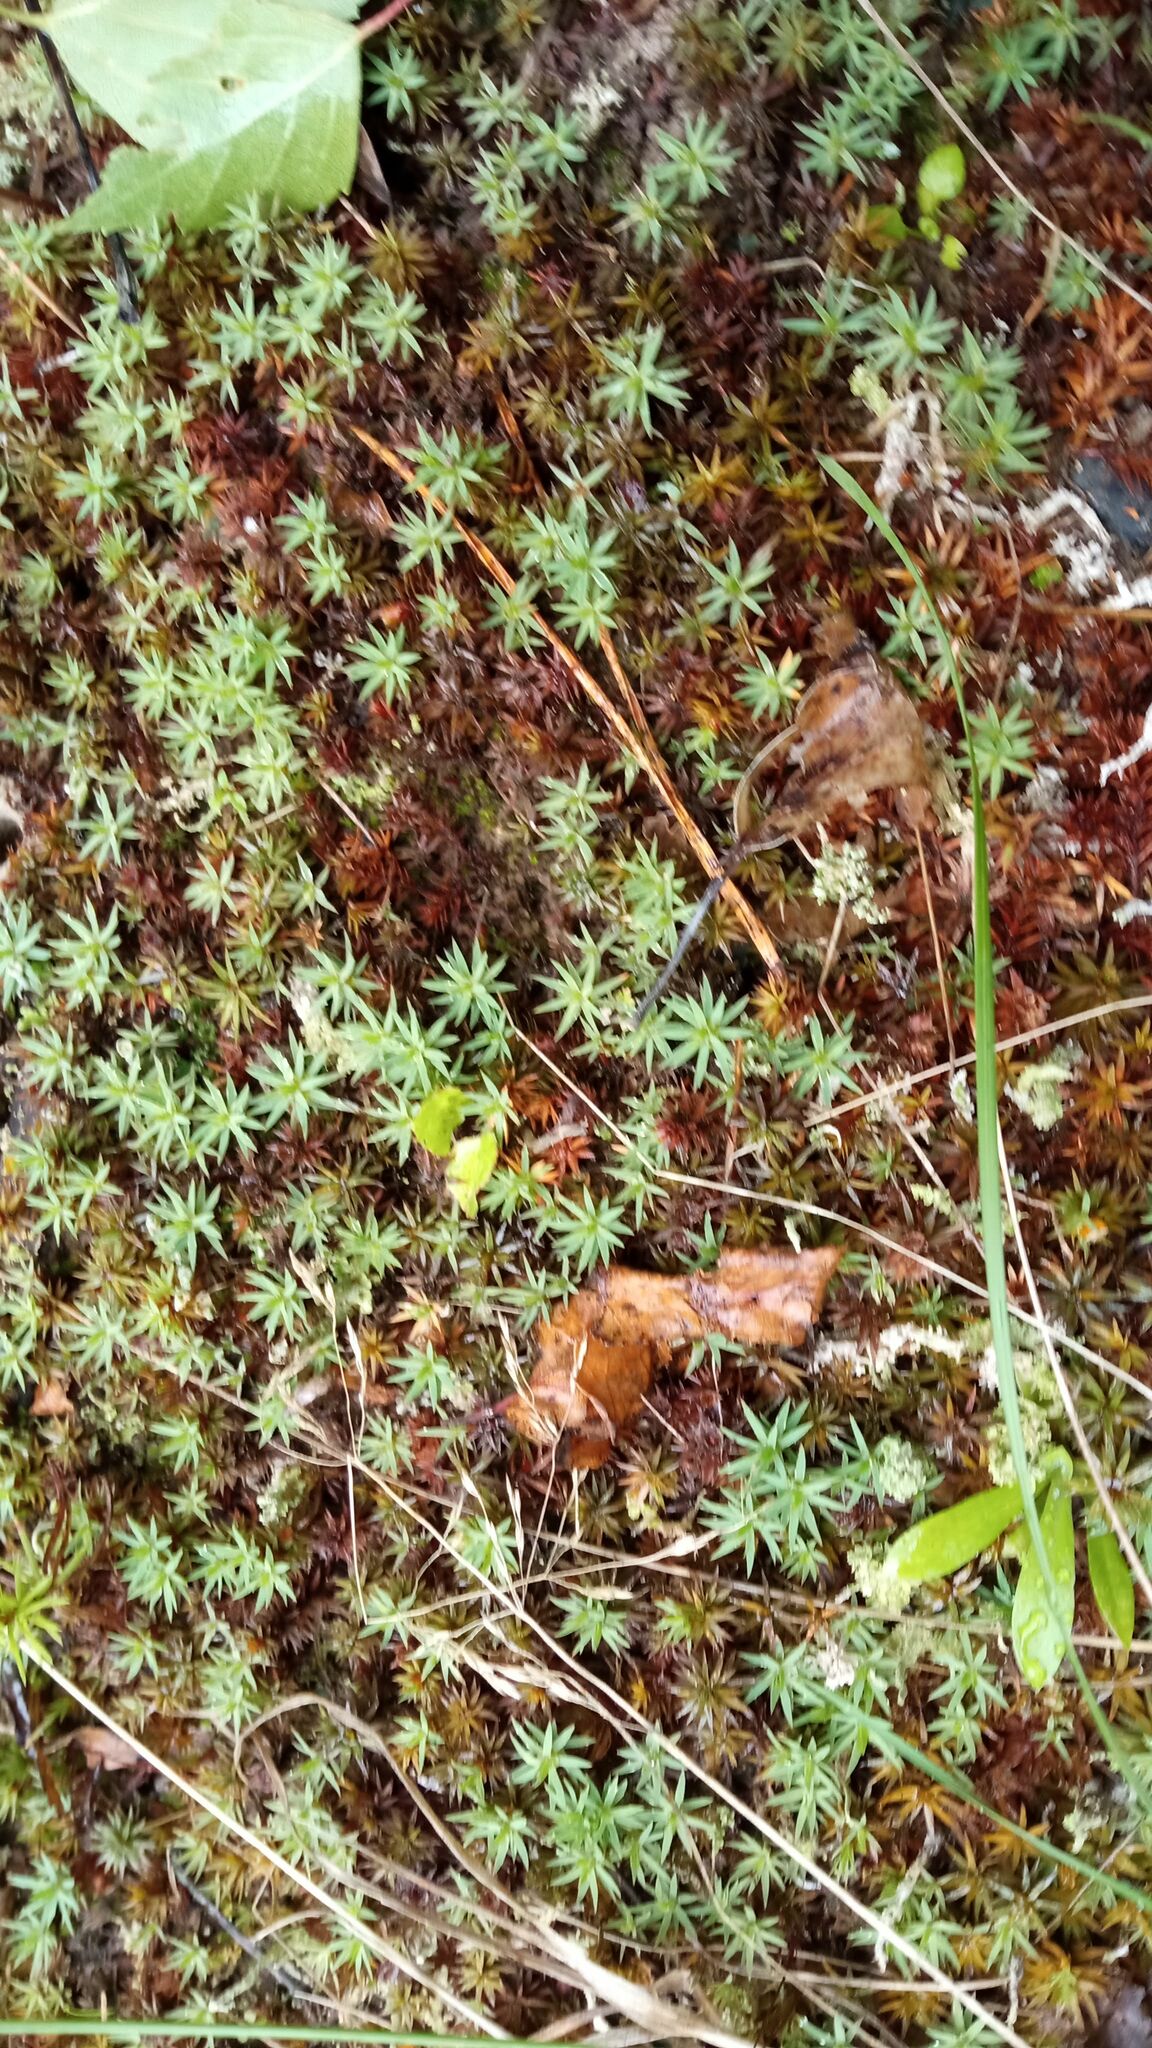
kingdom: Plantae
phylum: Bryophyta
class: Polytrichopsida
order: Polytrichales
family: Polytrichaceae
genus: Pogonatum
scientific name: Pogonatum urnigerum
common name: Urn hair moss
